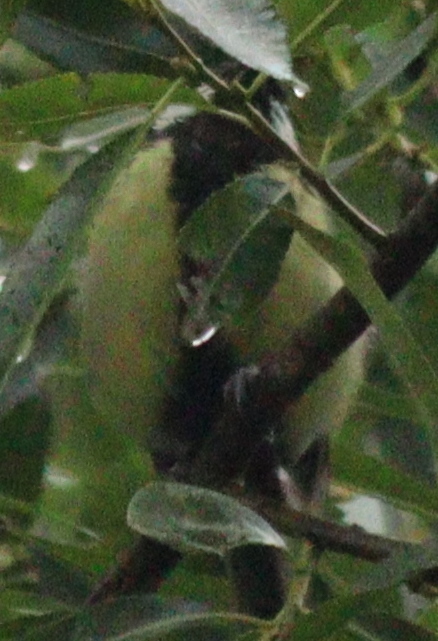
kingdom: Animalia
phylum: Chordata
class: Aves
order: Passeriformes
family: Paridae
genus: Parus
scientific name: Parus major
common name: Great tit
